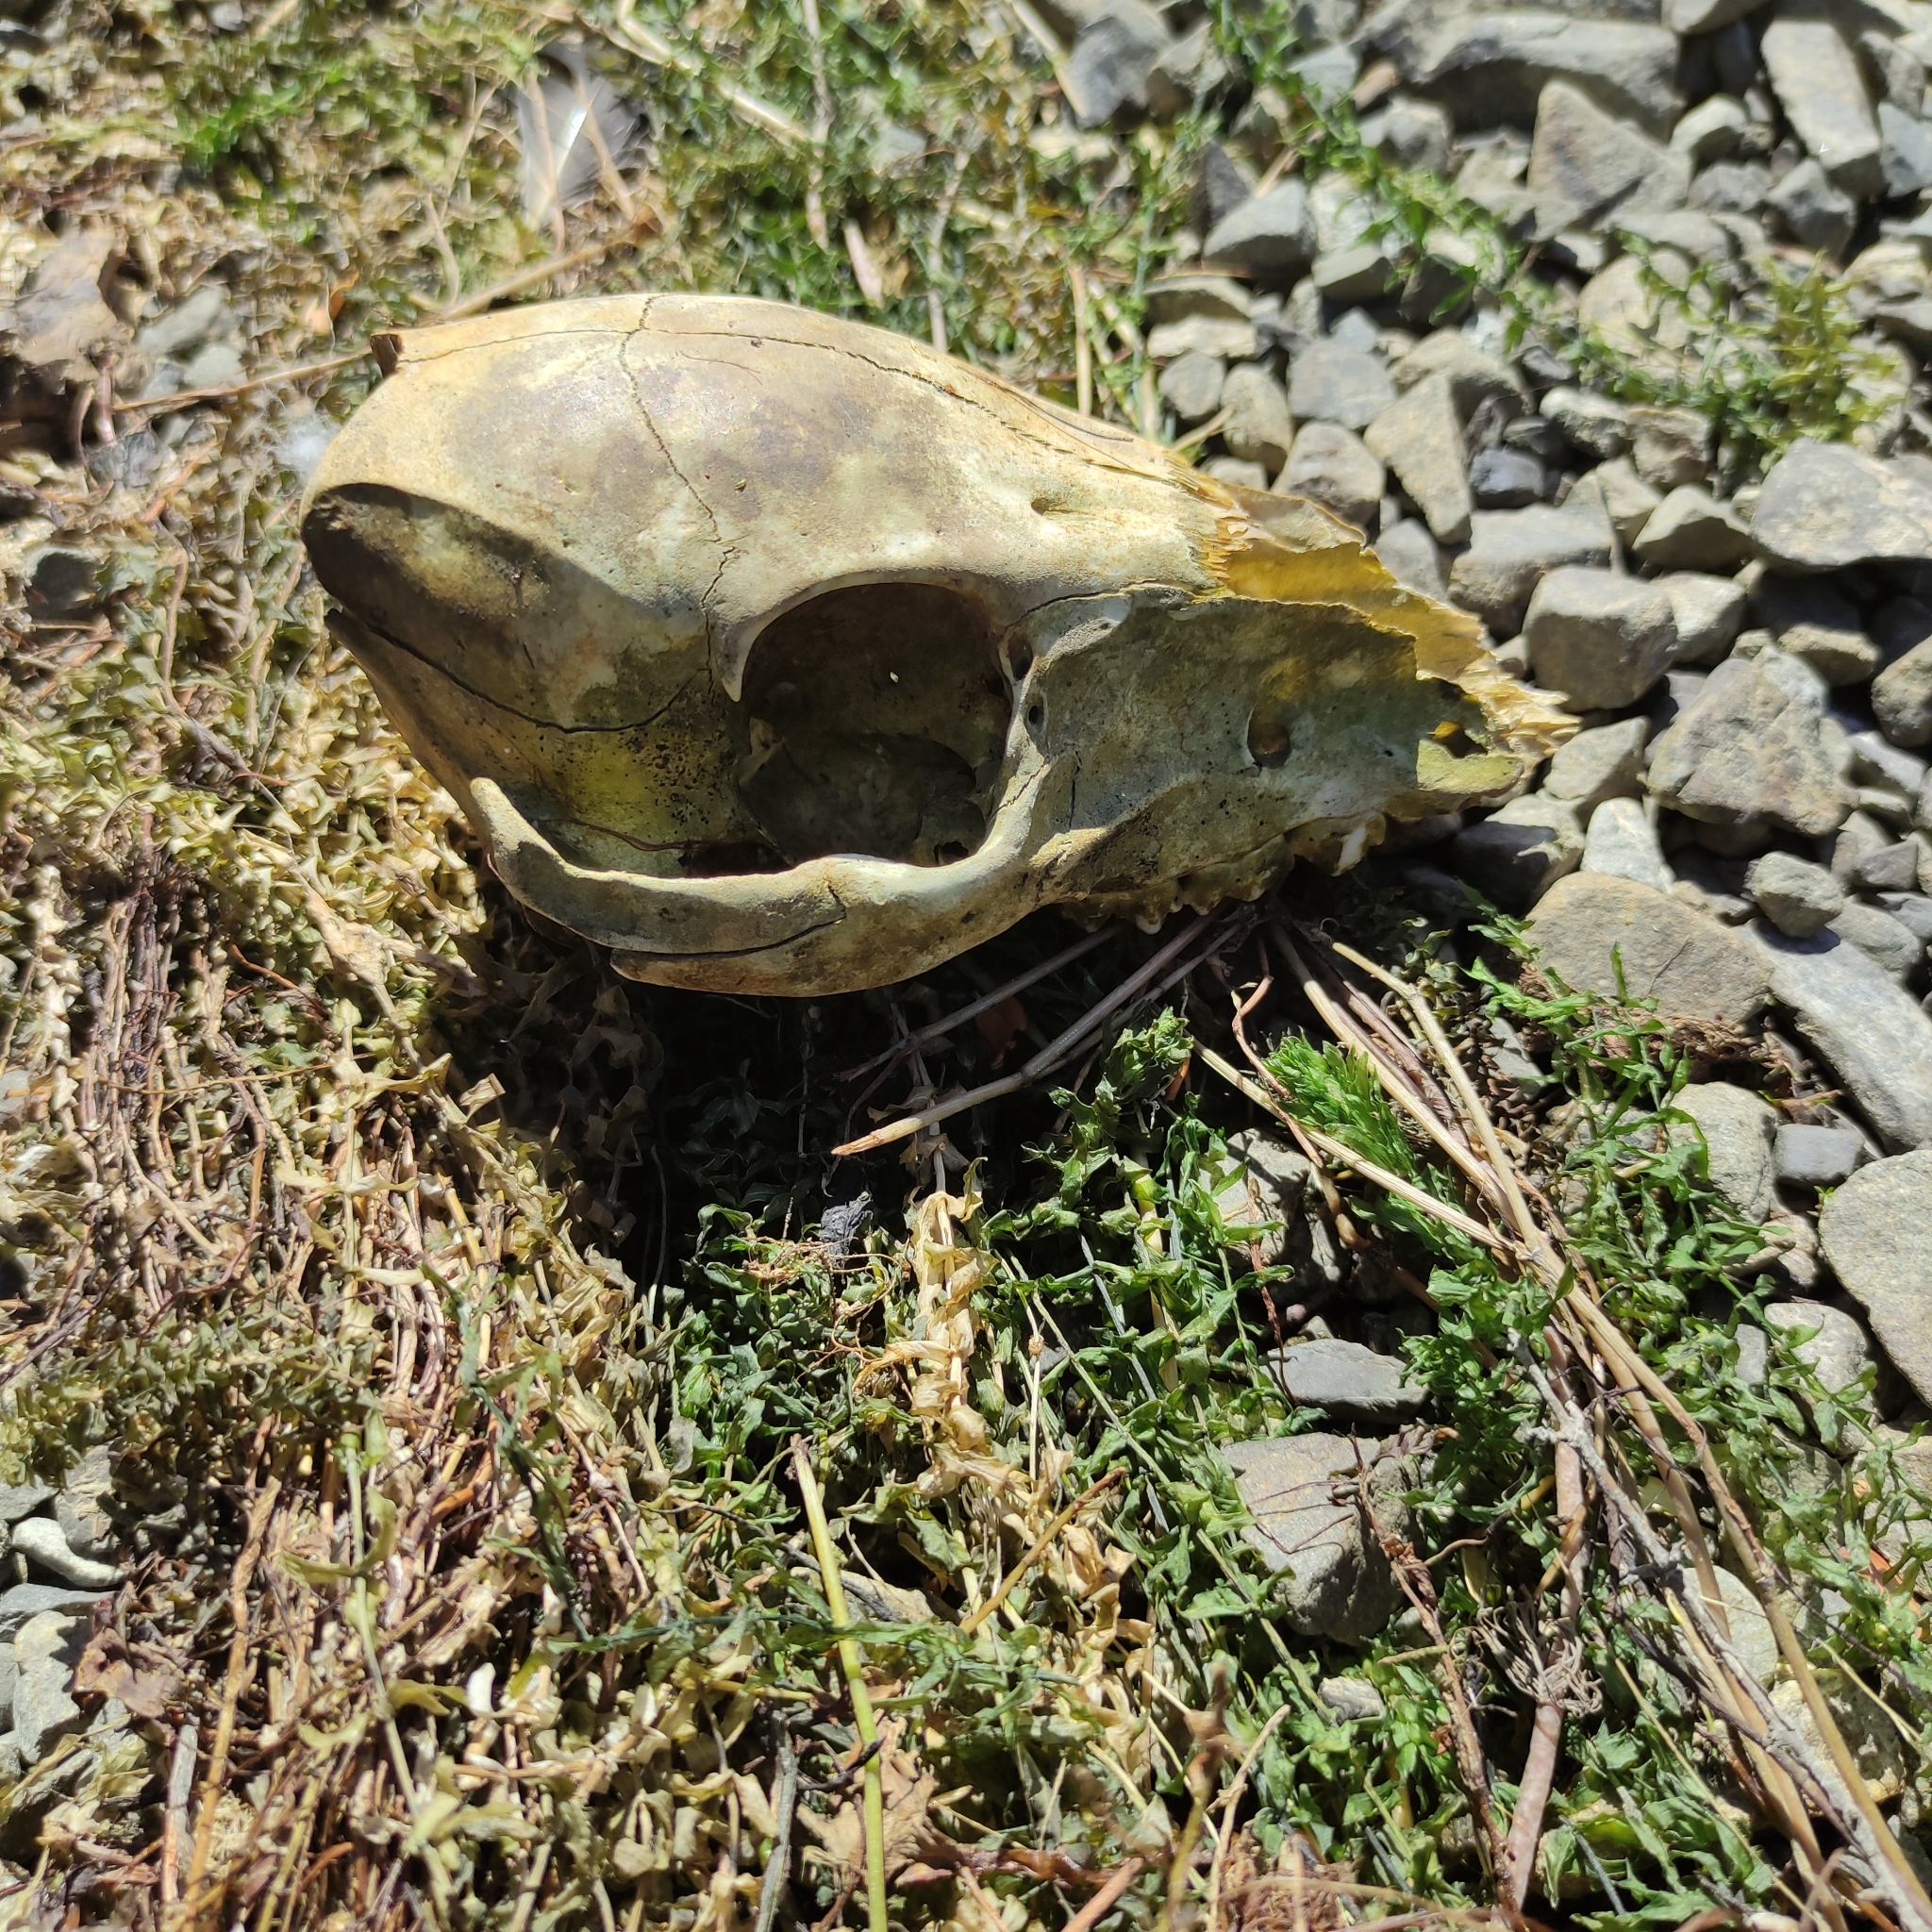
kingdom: Animalia
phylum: Chordata
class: Mammalia
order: Artiodactyla
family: Suidae
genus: Sus
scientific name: Sus scrofa
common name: Wild boar
